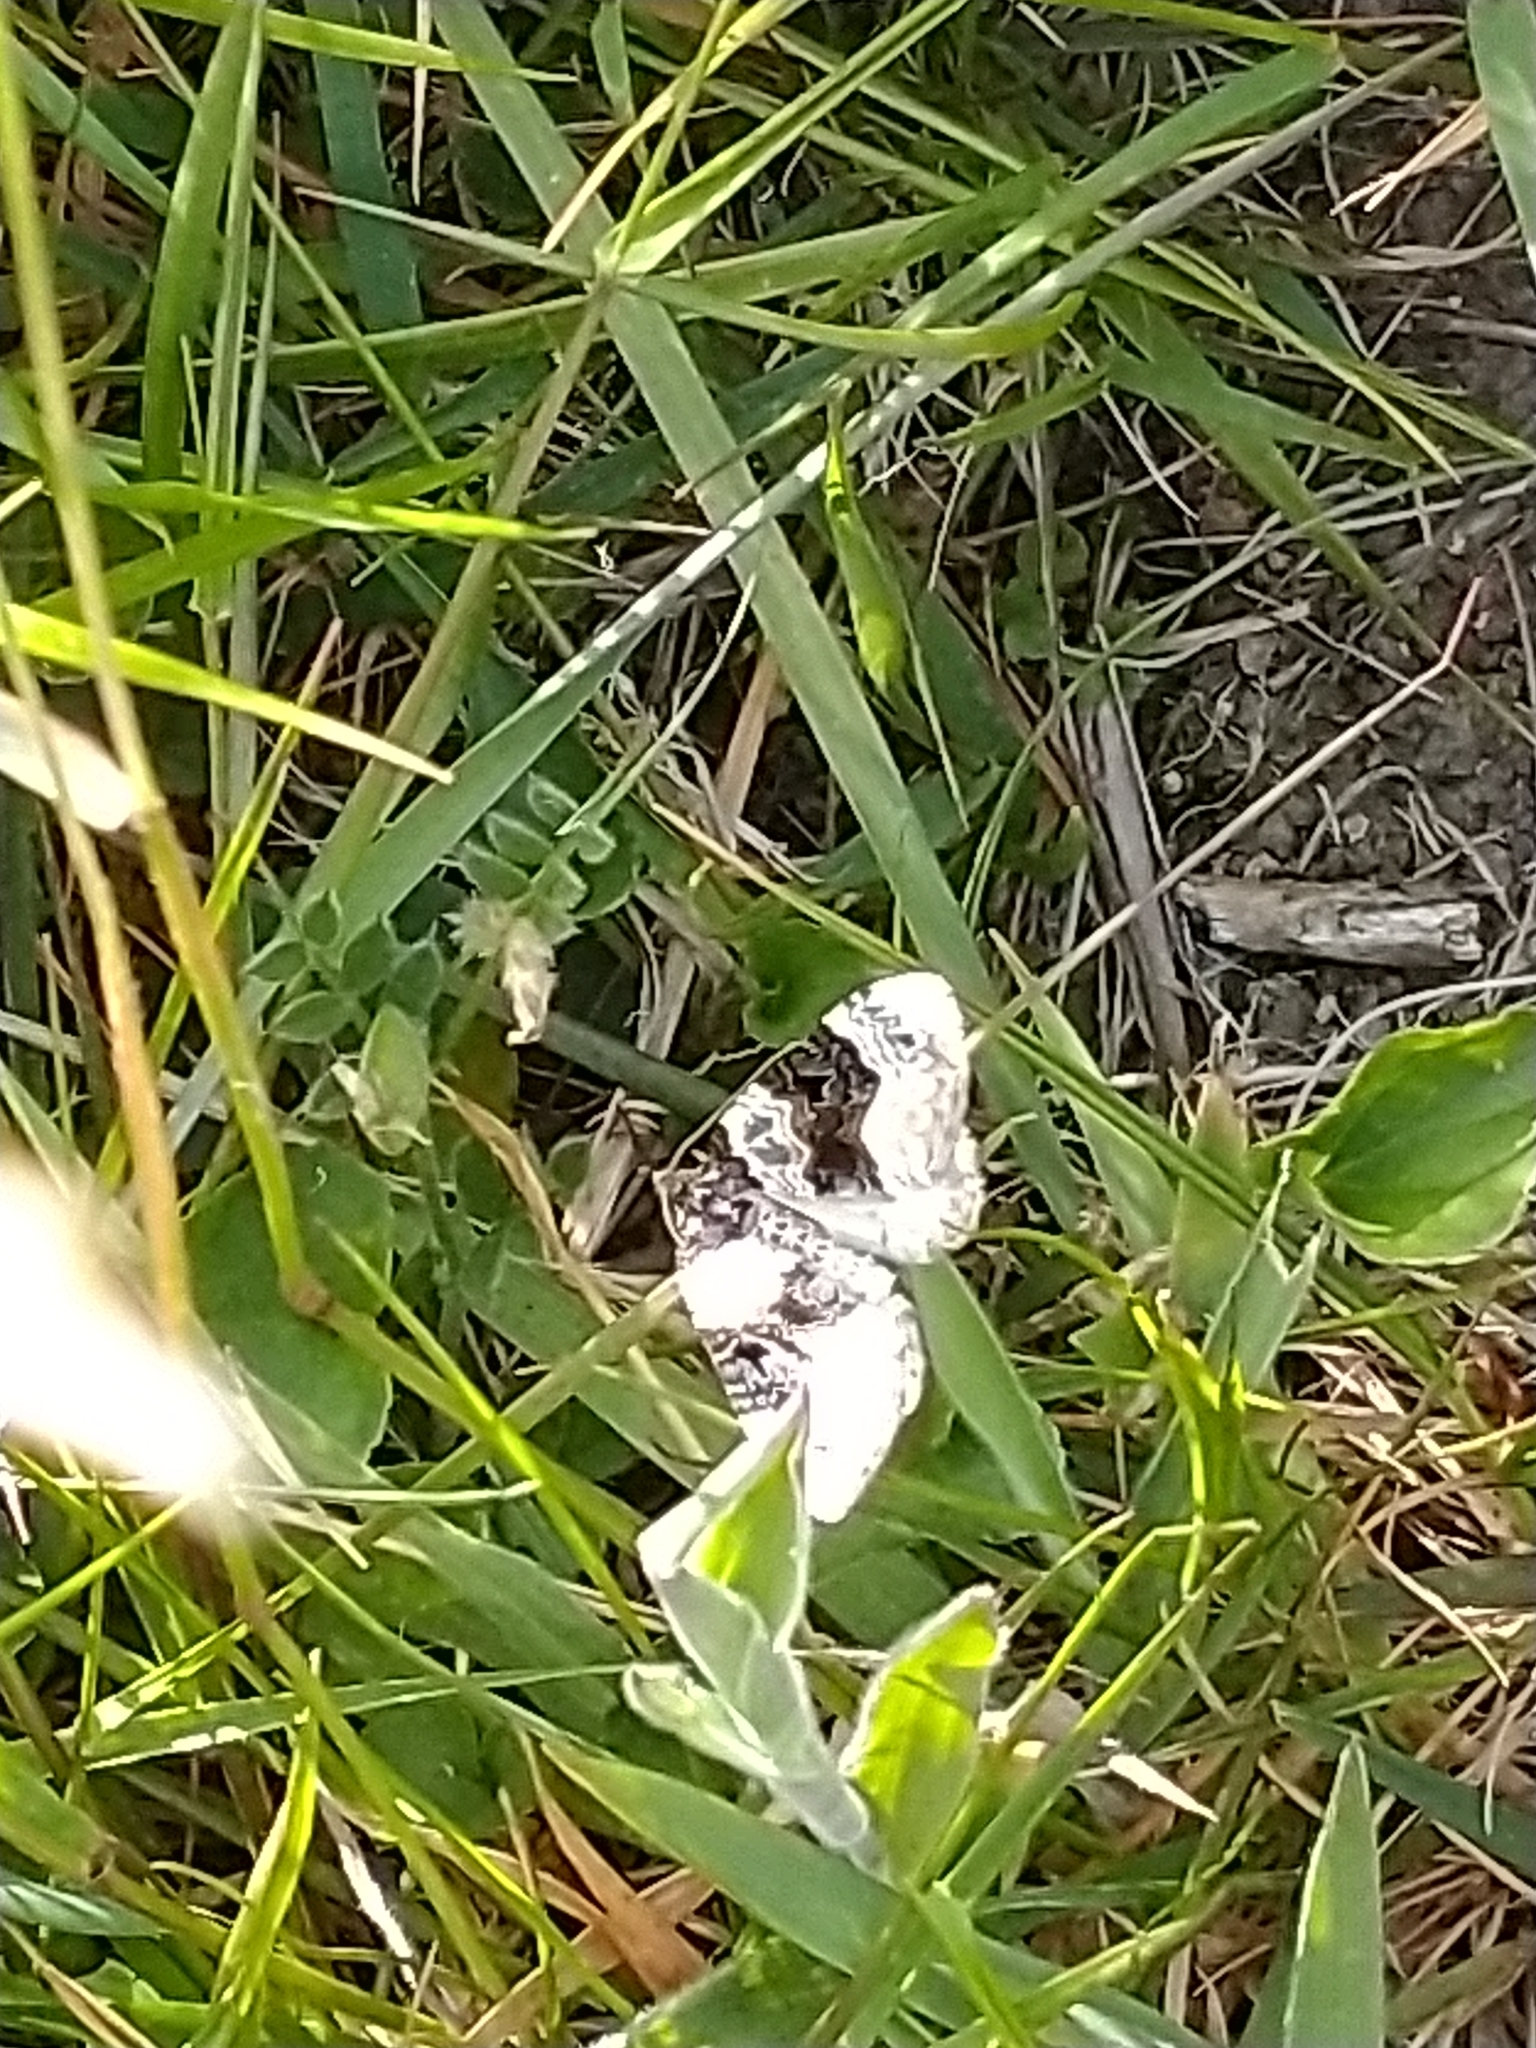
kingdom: Animalia
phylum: Arthropoda
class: Insecta
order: Lepidoptera
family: Geometridae
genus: Cosmorhoe
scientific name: Cosmorhoe ocellata
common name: Purple bar
